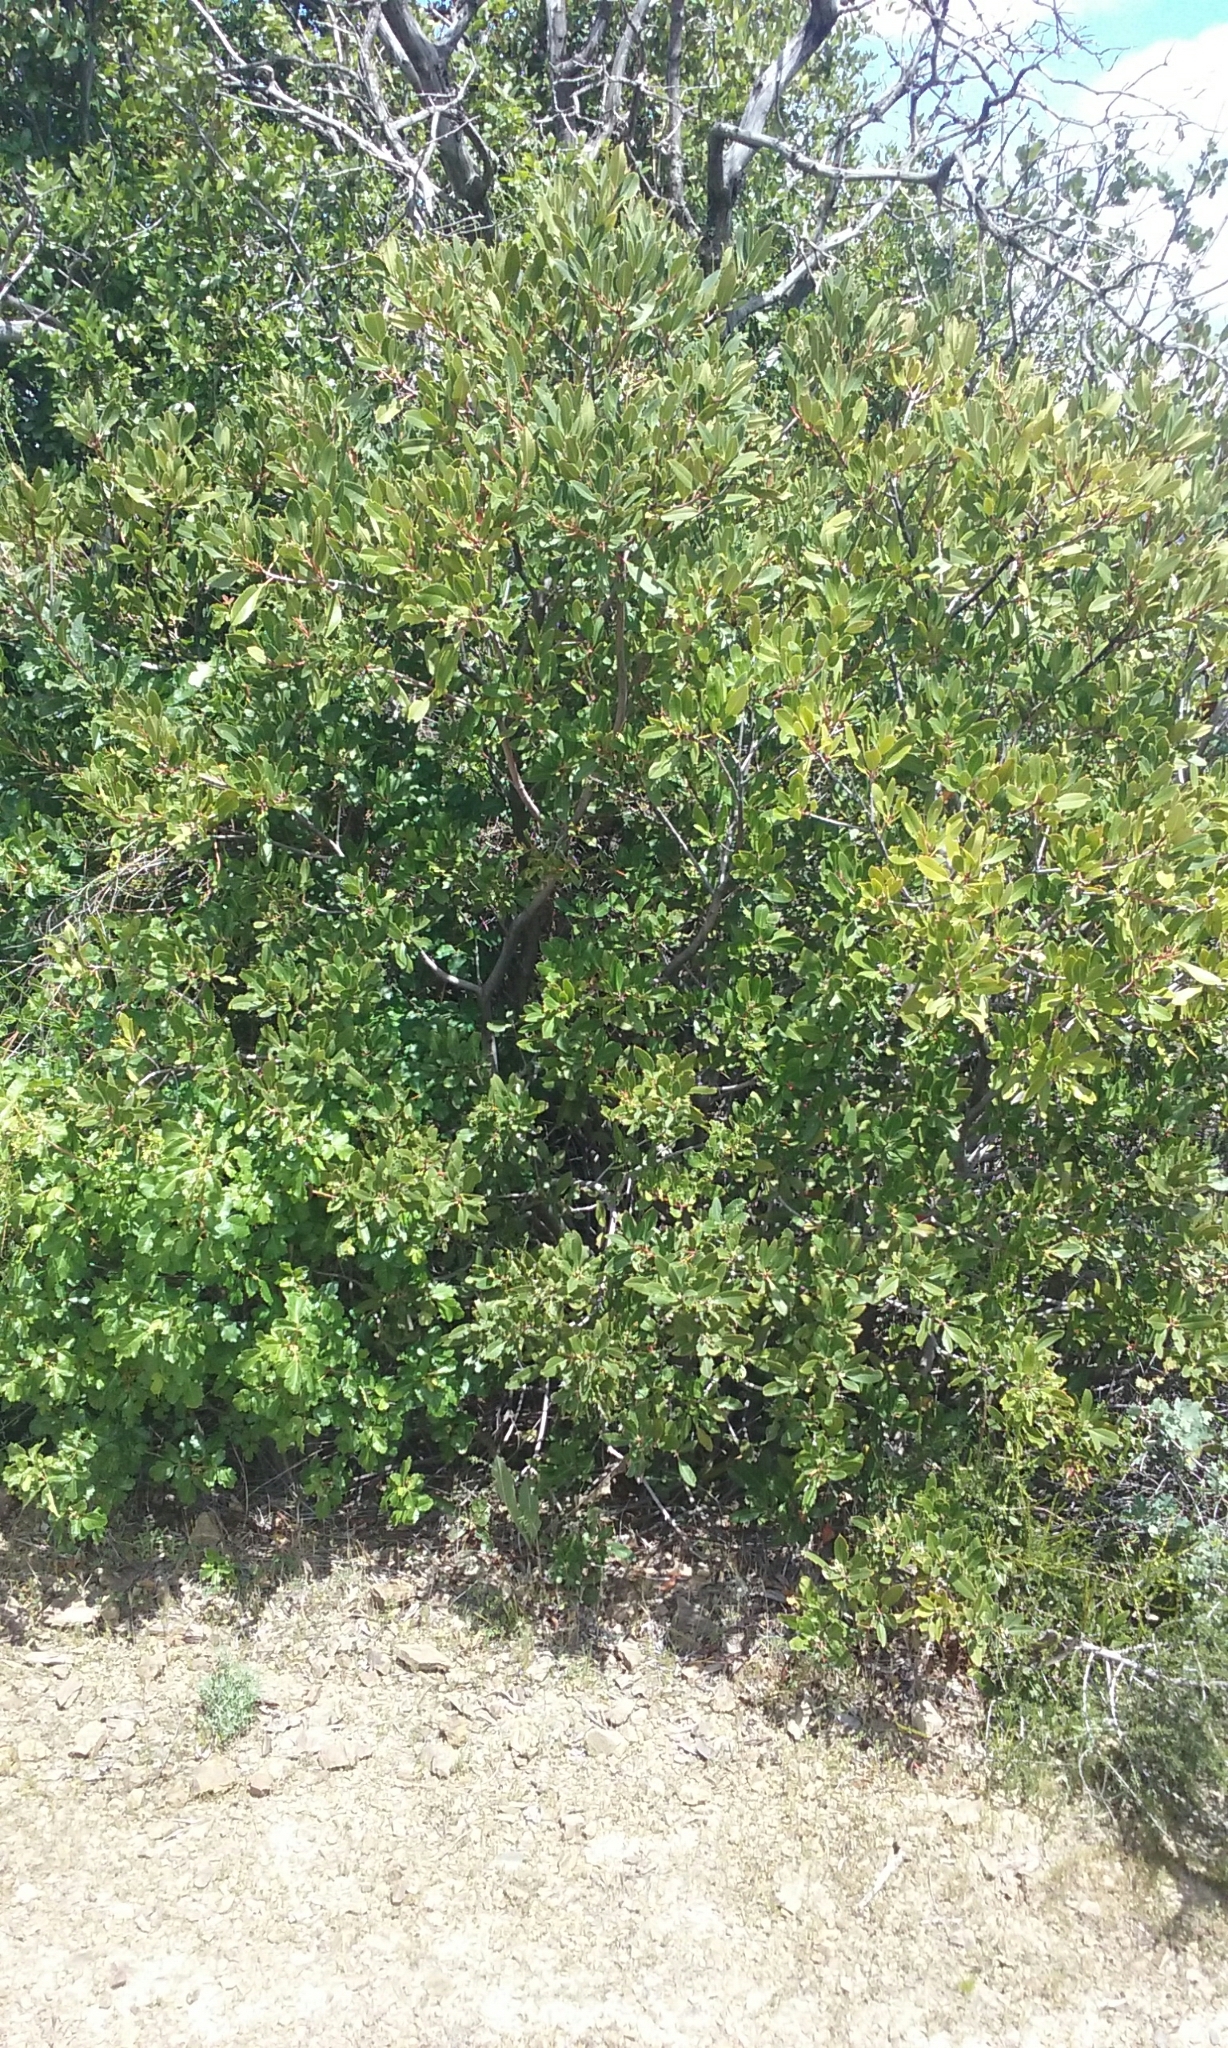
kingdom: Plantae
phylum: Tracheophyta
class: Magnoliopsida
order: Rosales
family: Rosaceae
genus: Heteromeles
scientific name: Heteromeles arbutifolia
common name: California-holly
